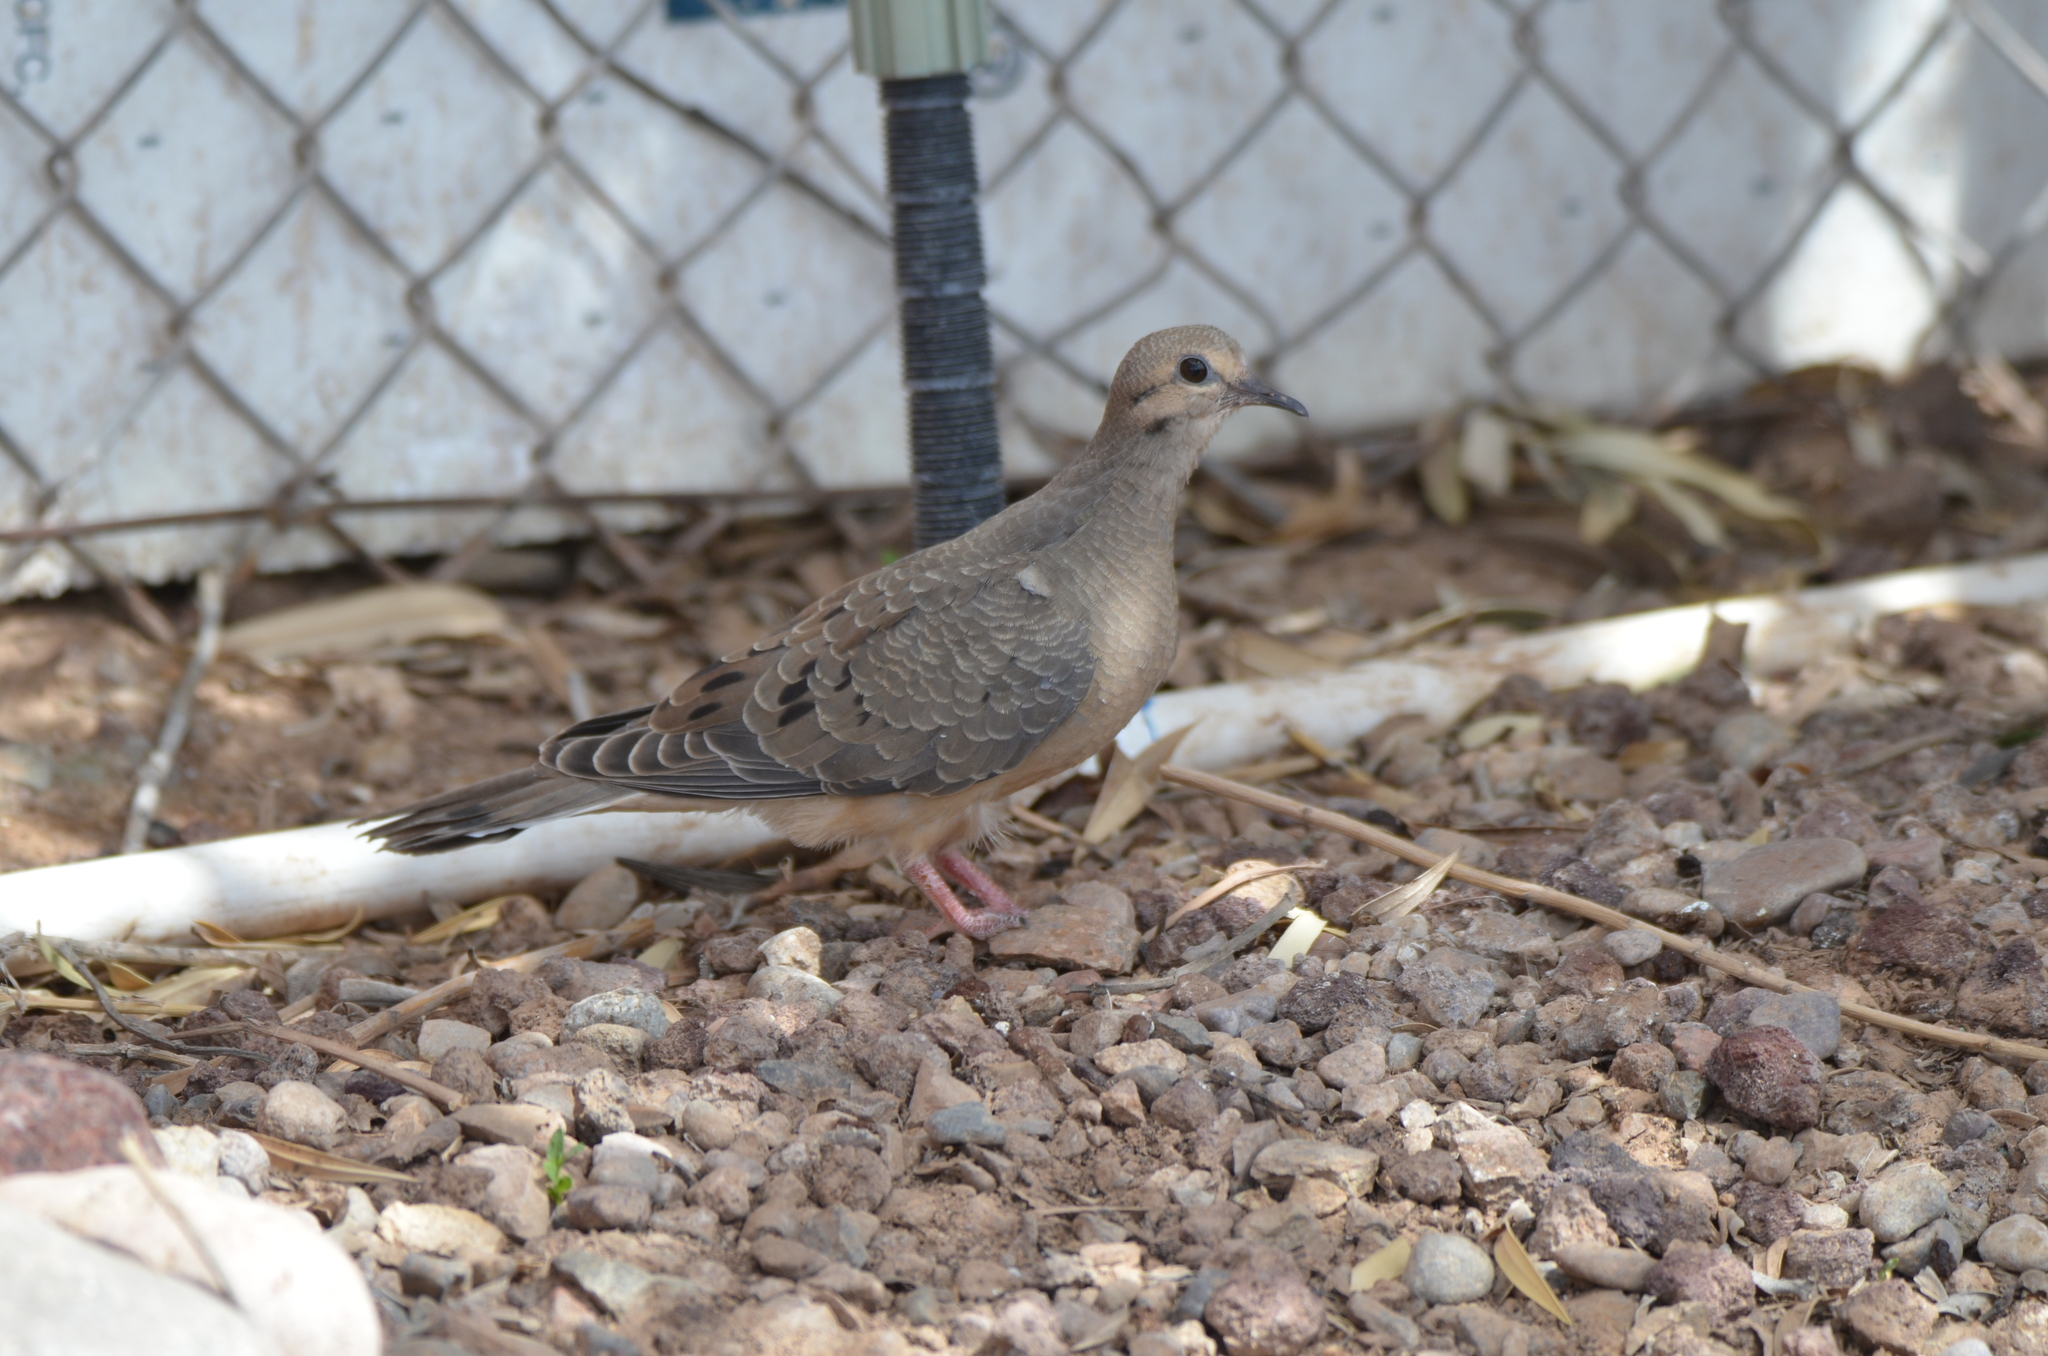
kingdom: Animalia
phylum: Chordata
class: Aves
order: Columbiformes
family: Columbidae
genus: Zenaida
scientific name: Zenaida macroura
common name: Mourning dove
